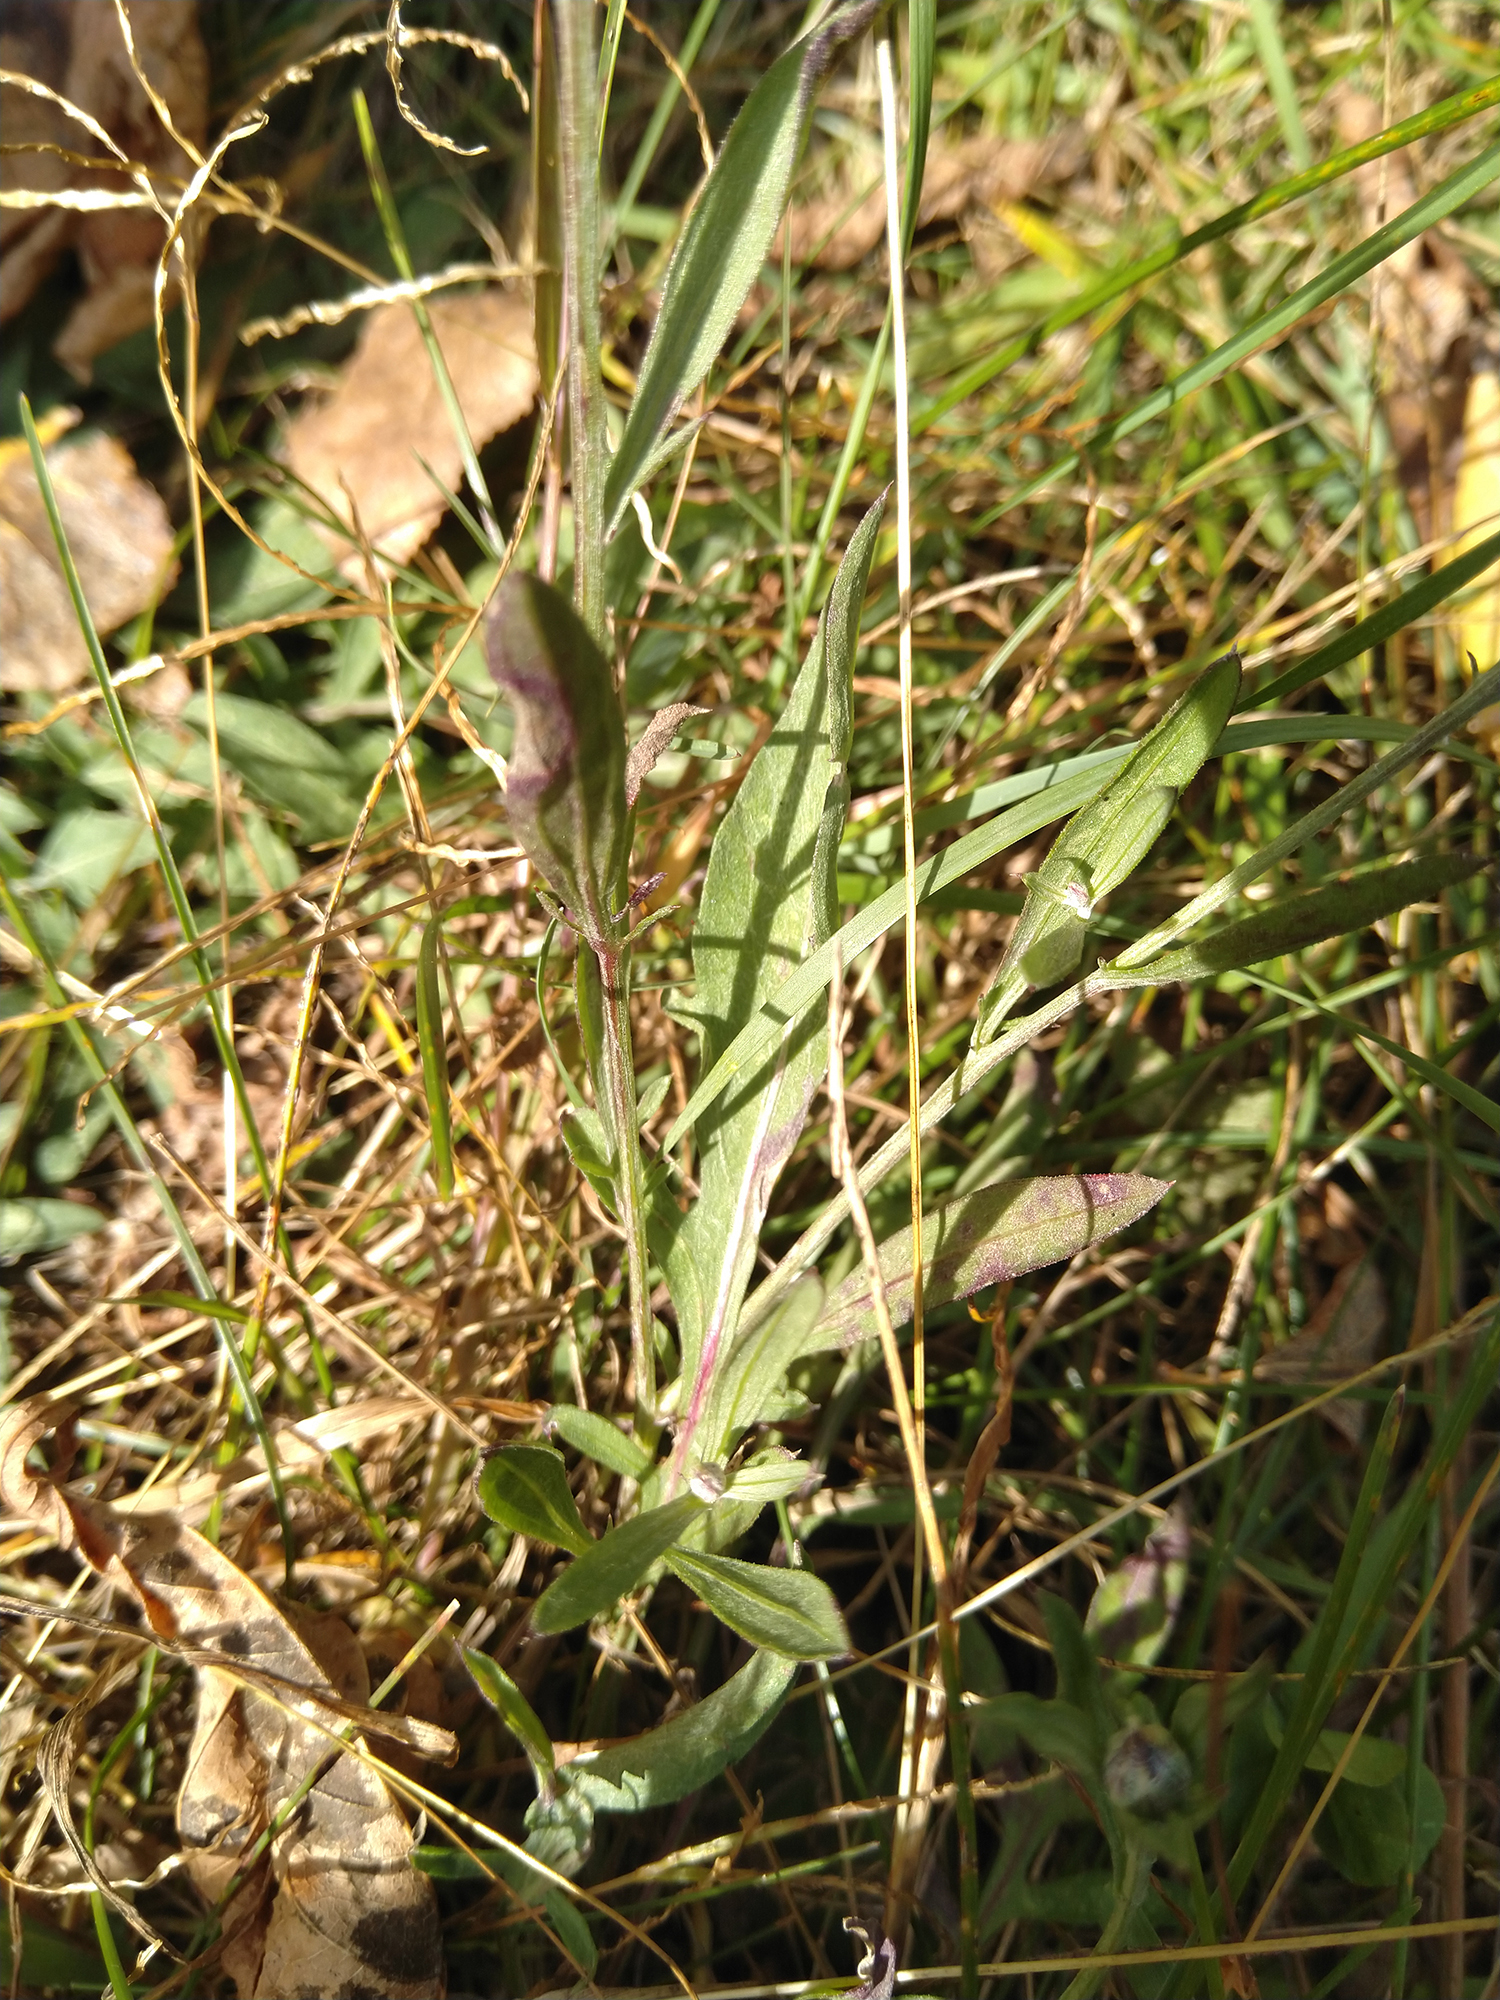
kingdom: Plantae
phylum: Tracheophyta
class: Magnoliopsida
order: Asterales
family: Asteraceae
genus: Centaurea
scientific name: Centaurea stoebe
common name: Spotted knapweed
